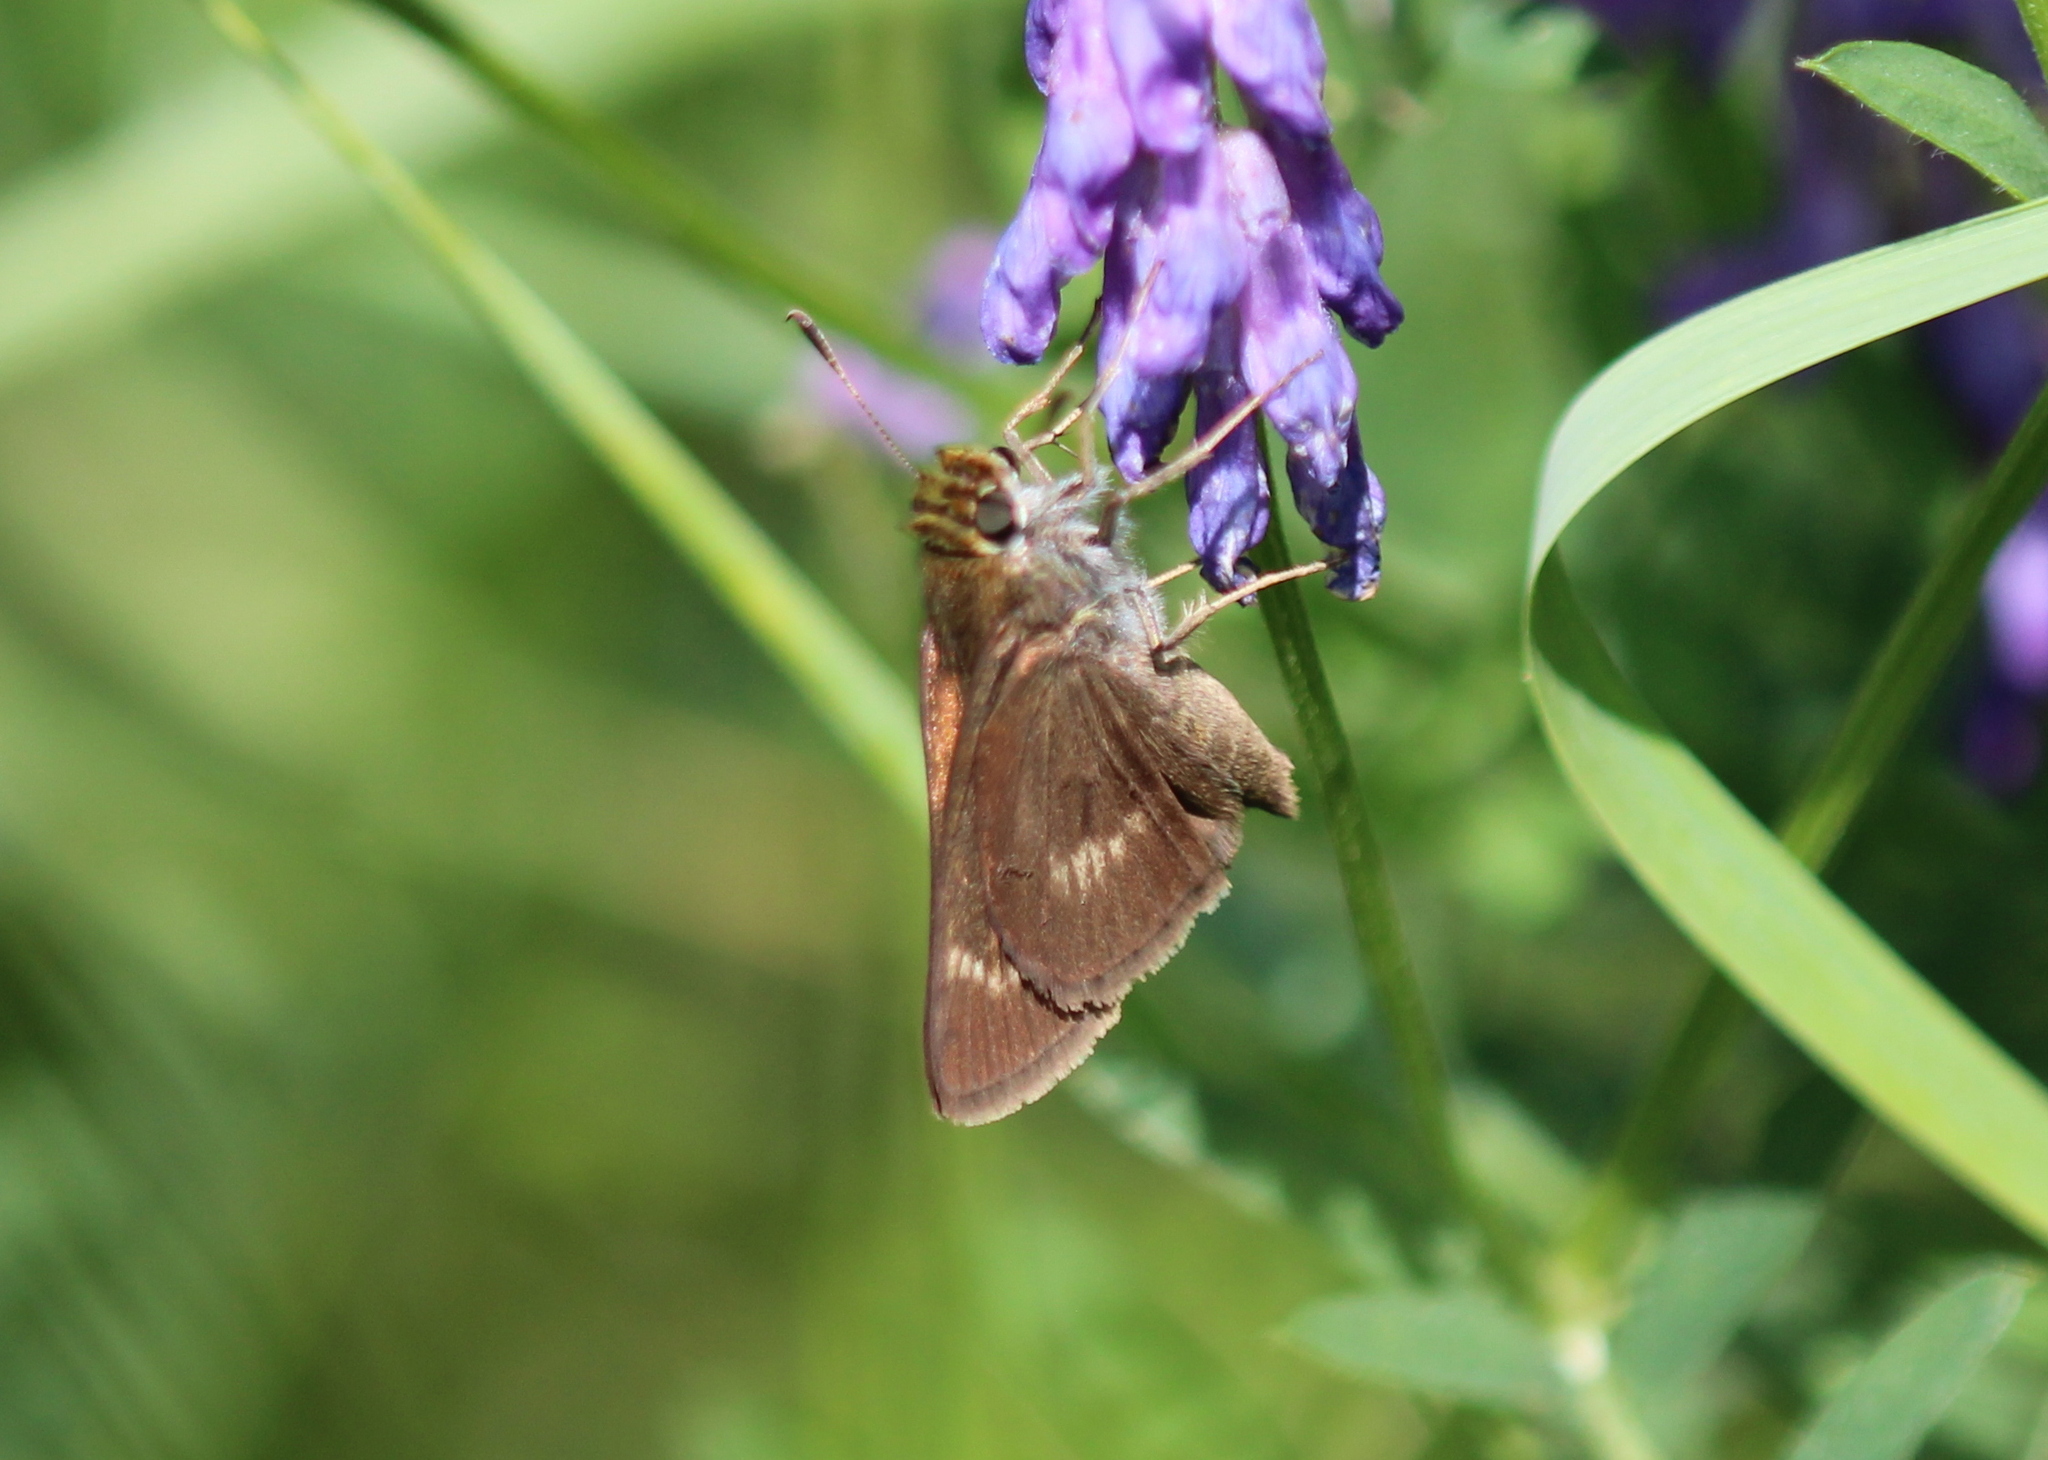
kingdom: Animalia
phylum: Arthropoda
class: Insecta
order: Lepidoptera
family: Hesperiidae
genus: Polites
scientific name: Polites egeremet
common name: Northern broken-dash
